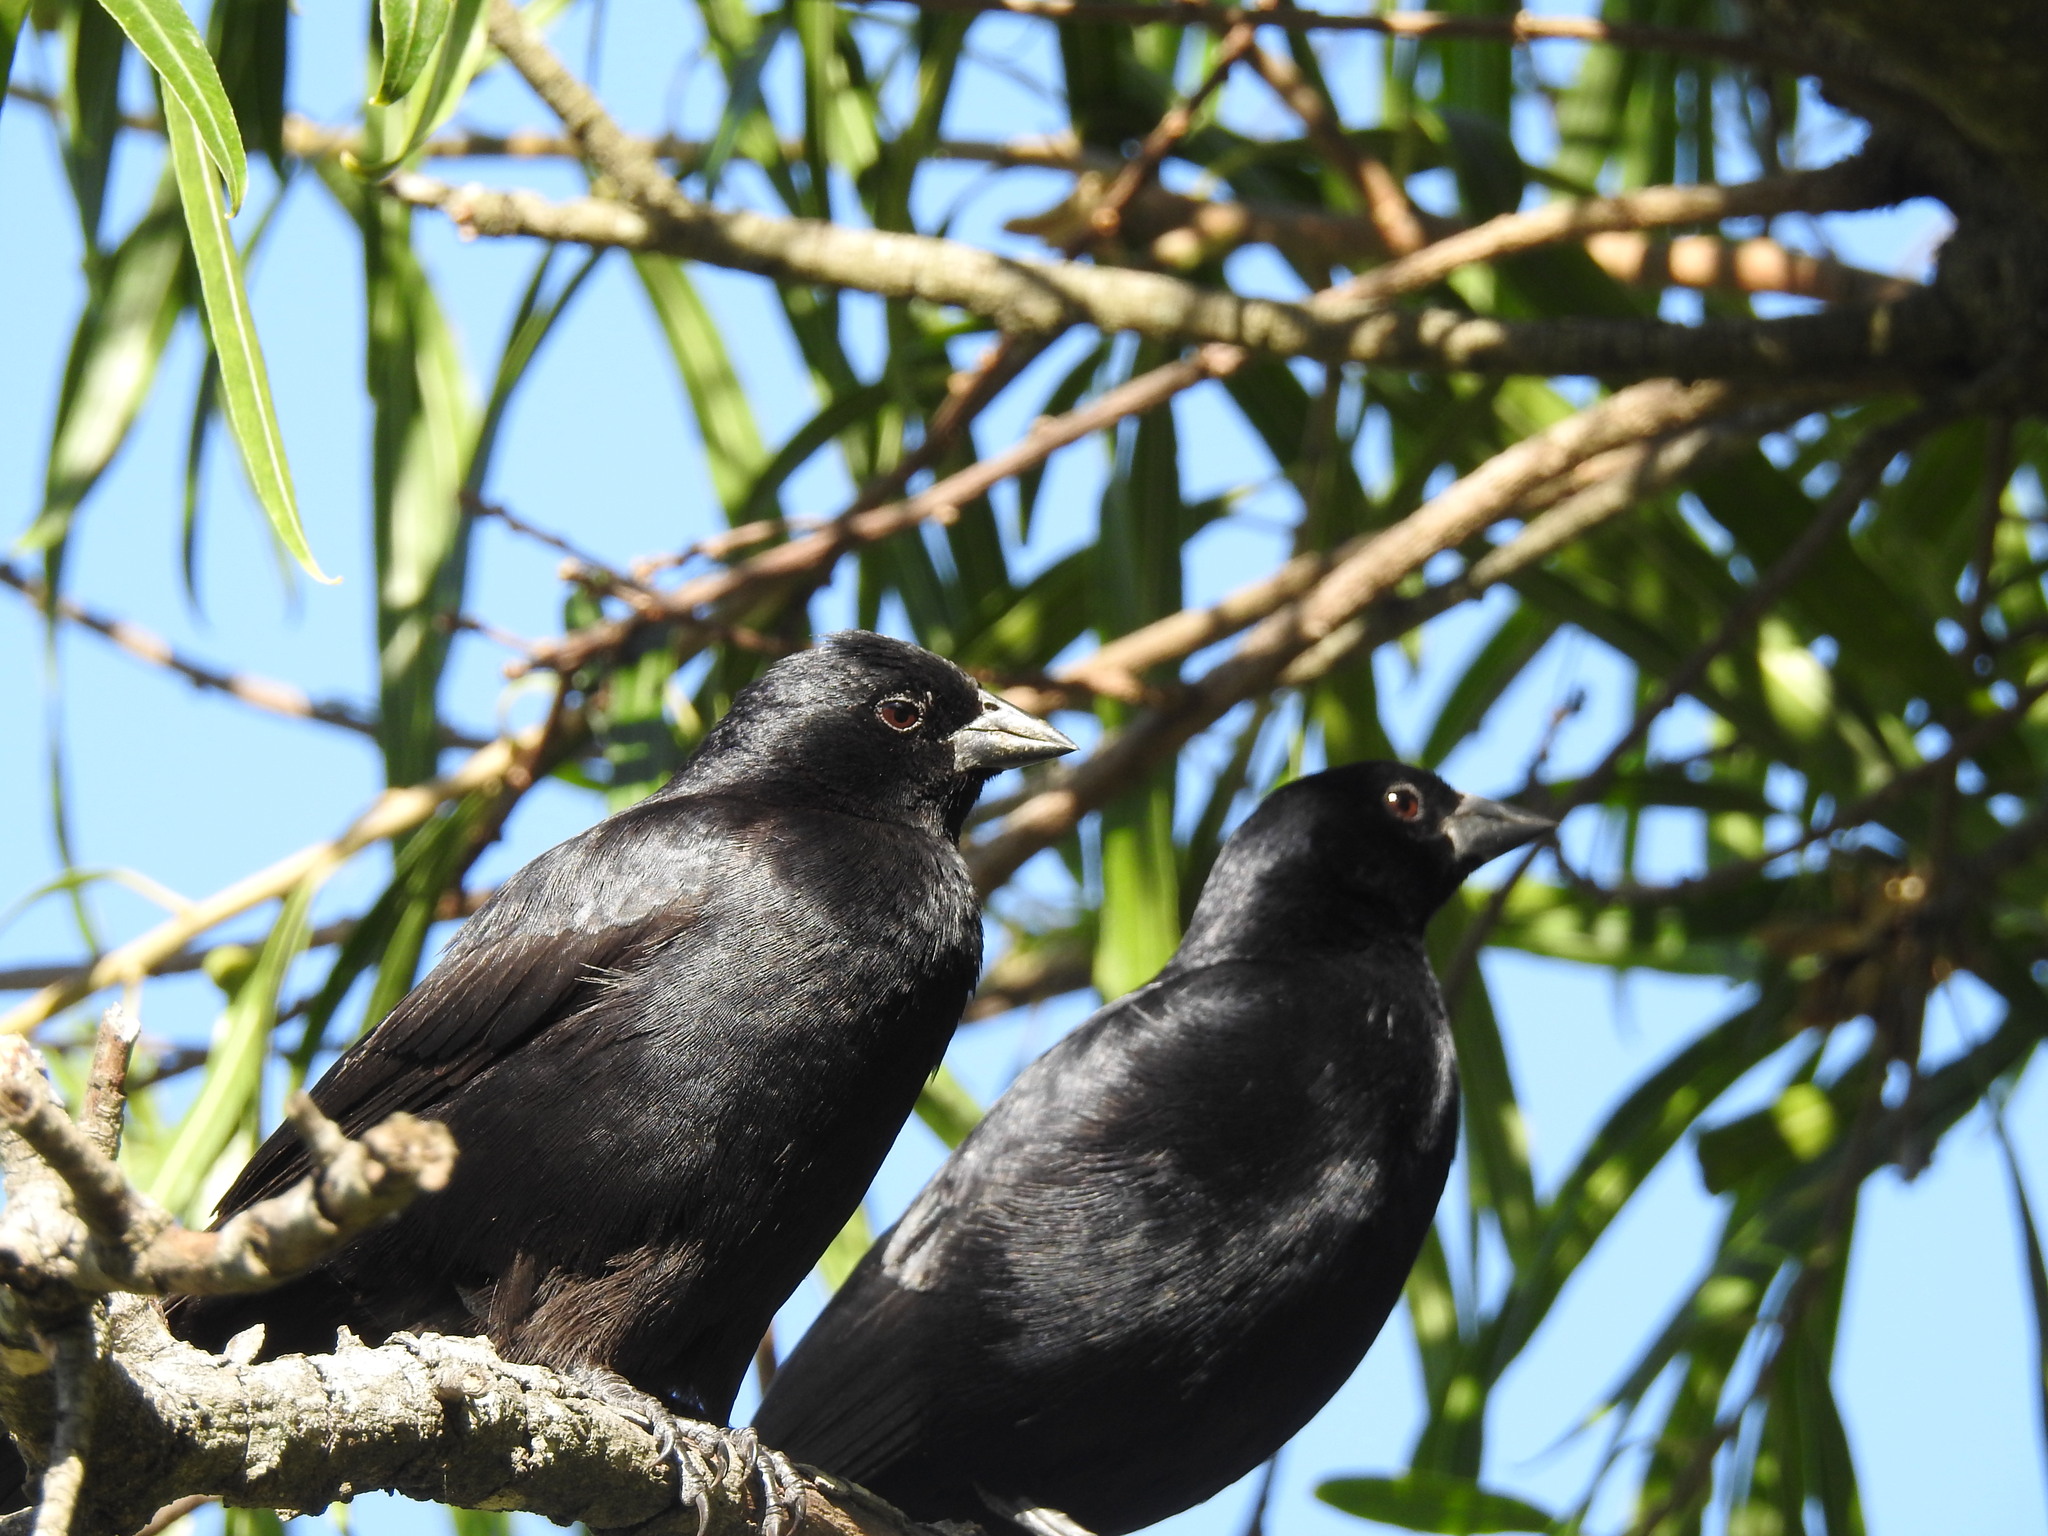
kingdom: Animalia
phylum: Chordata
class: Aves
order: Passeriformes
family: Icteridae
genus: Molothrus
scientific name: Molothrus rufoaxillaris
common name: Screaming cowbird
